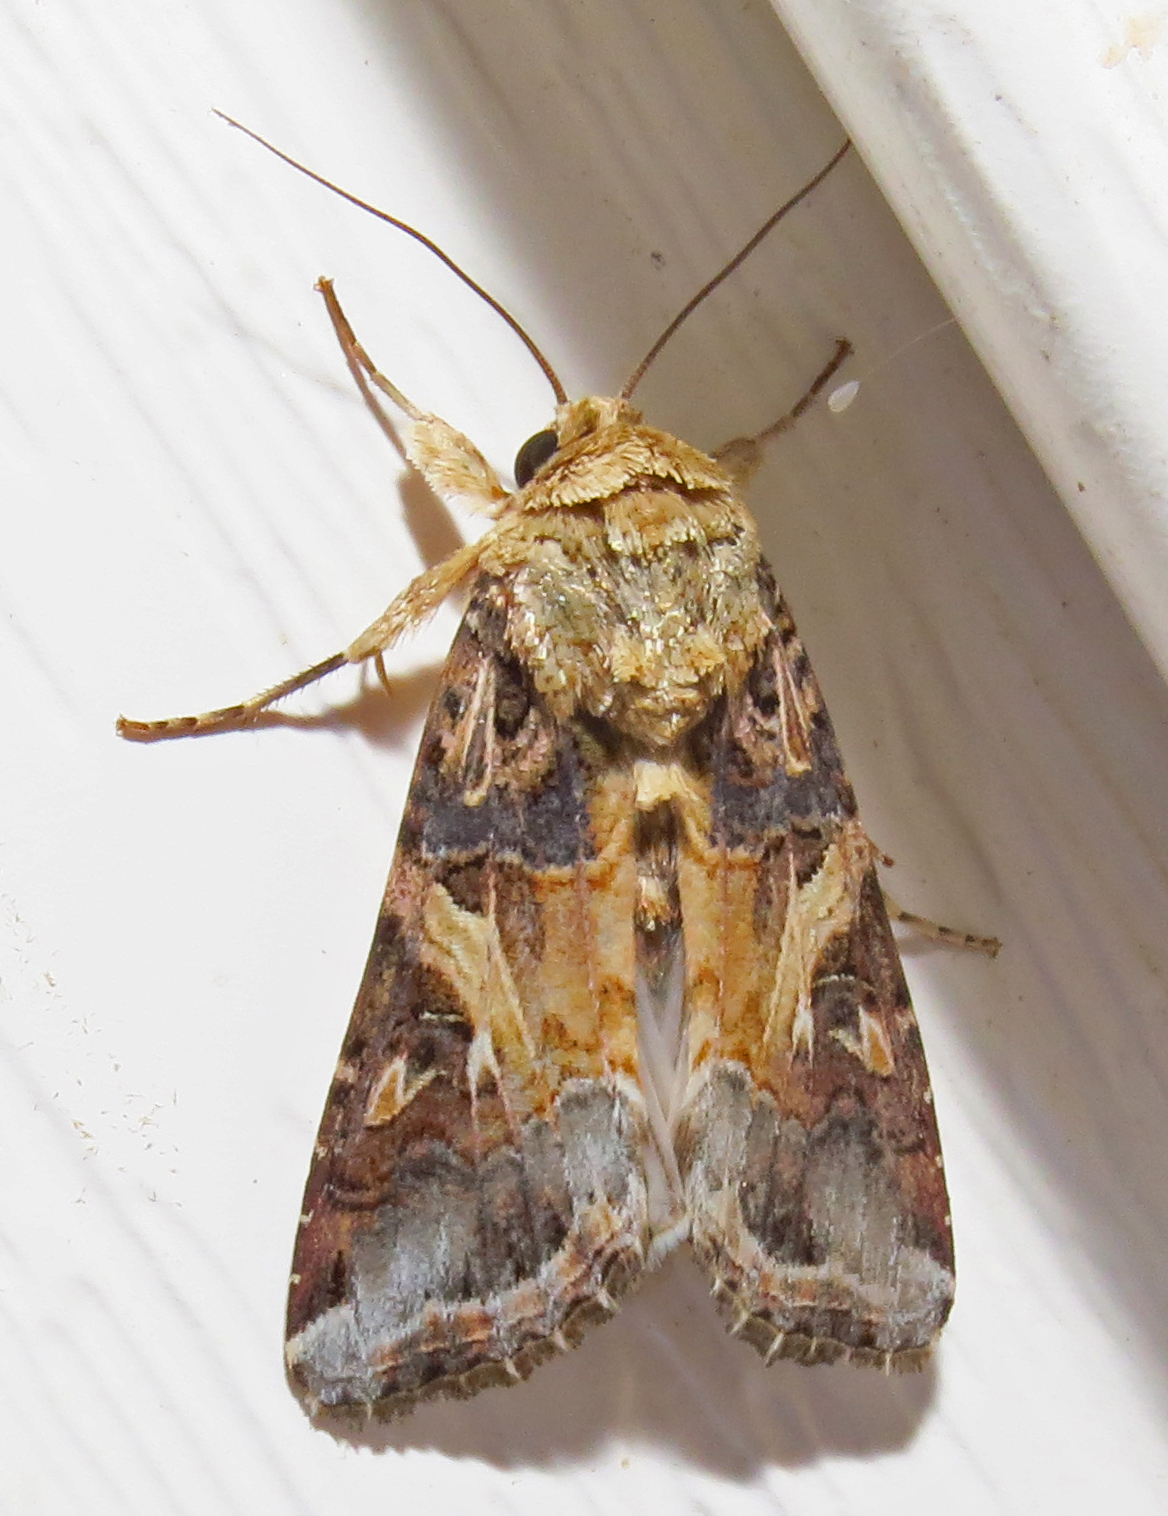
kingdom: Animalia
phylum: Arthropoda
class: Insecta
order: Lepidoptera
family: Noctuidae
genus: Spodoptera
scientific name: Spodoptera ornithogalli
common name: Yellow-striped armyworm
